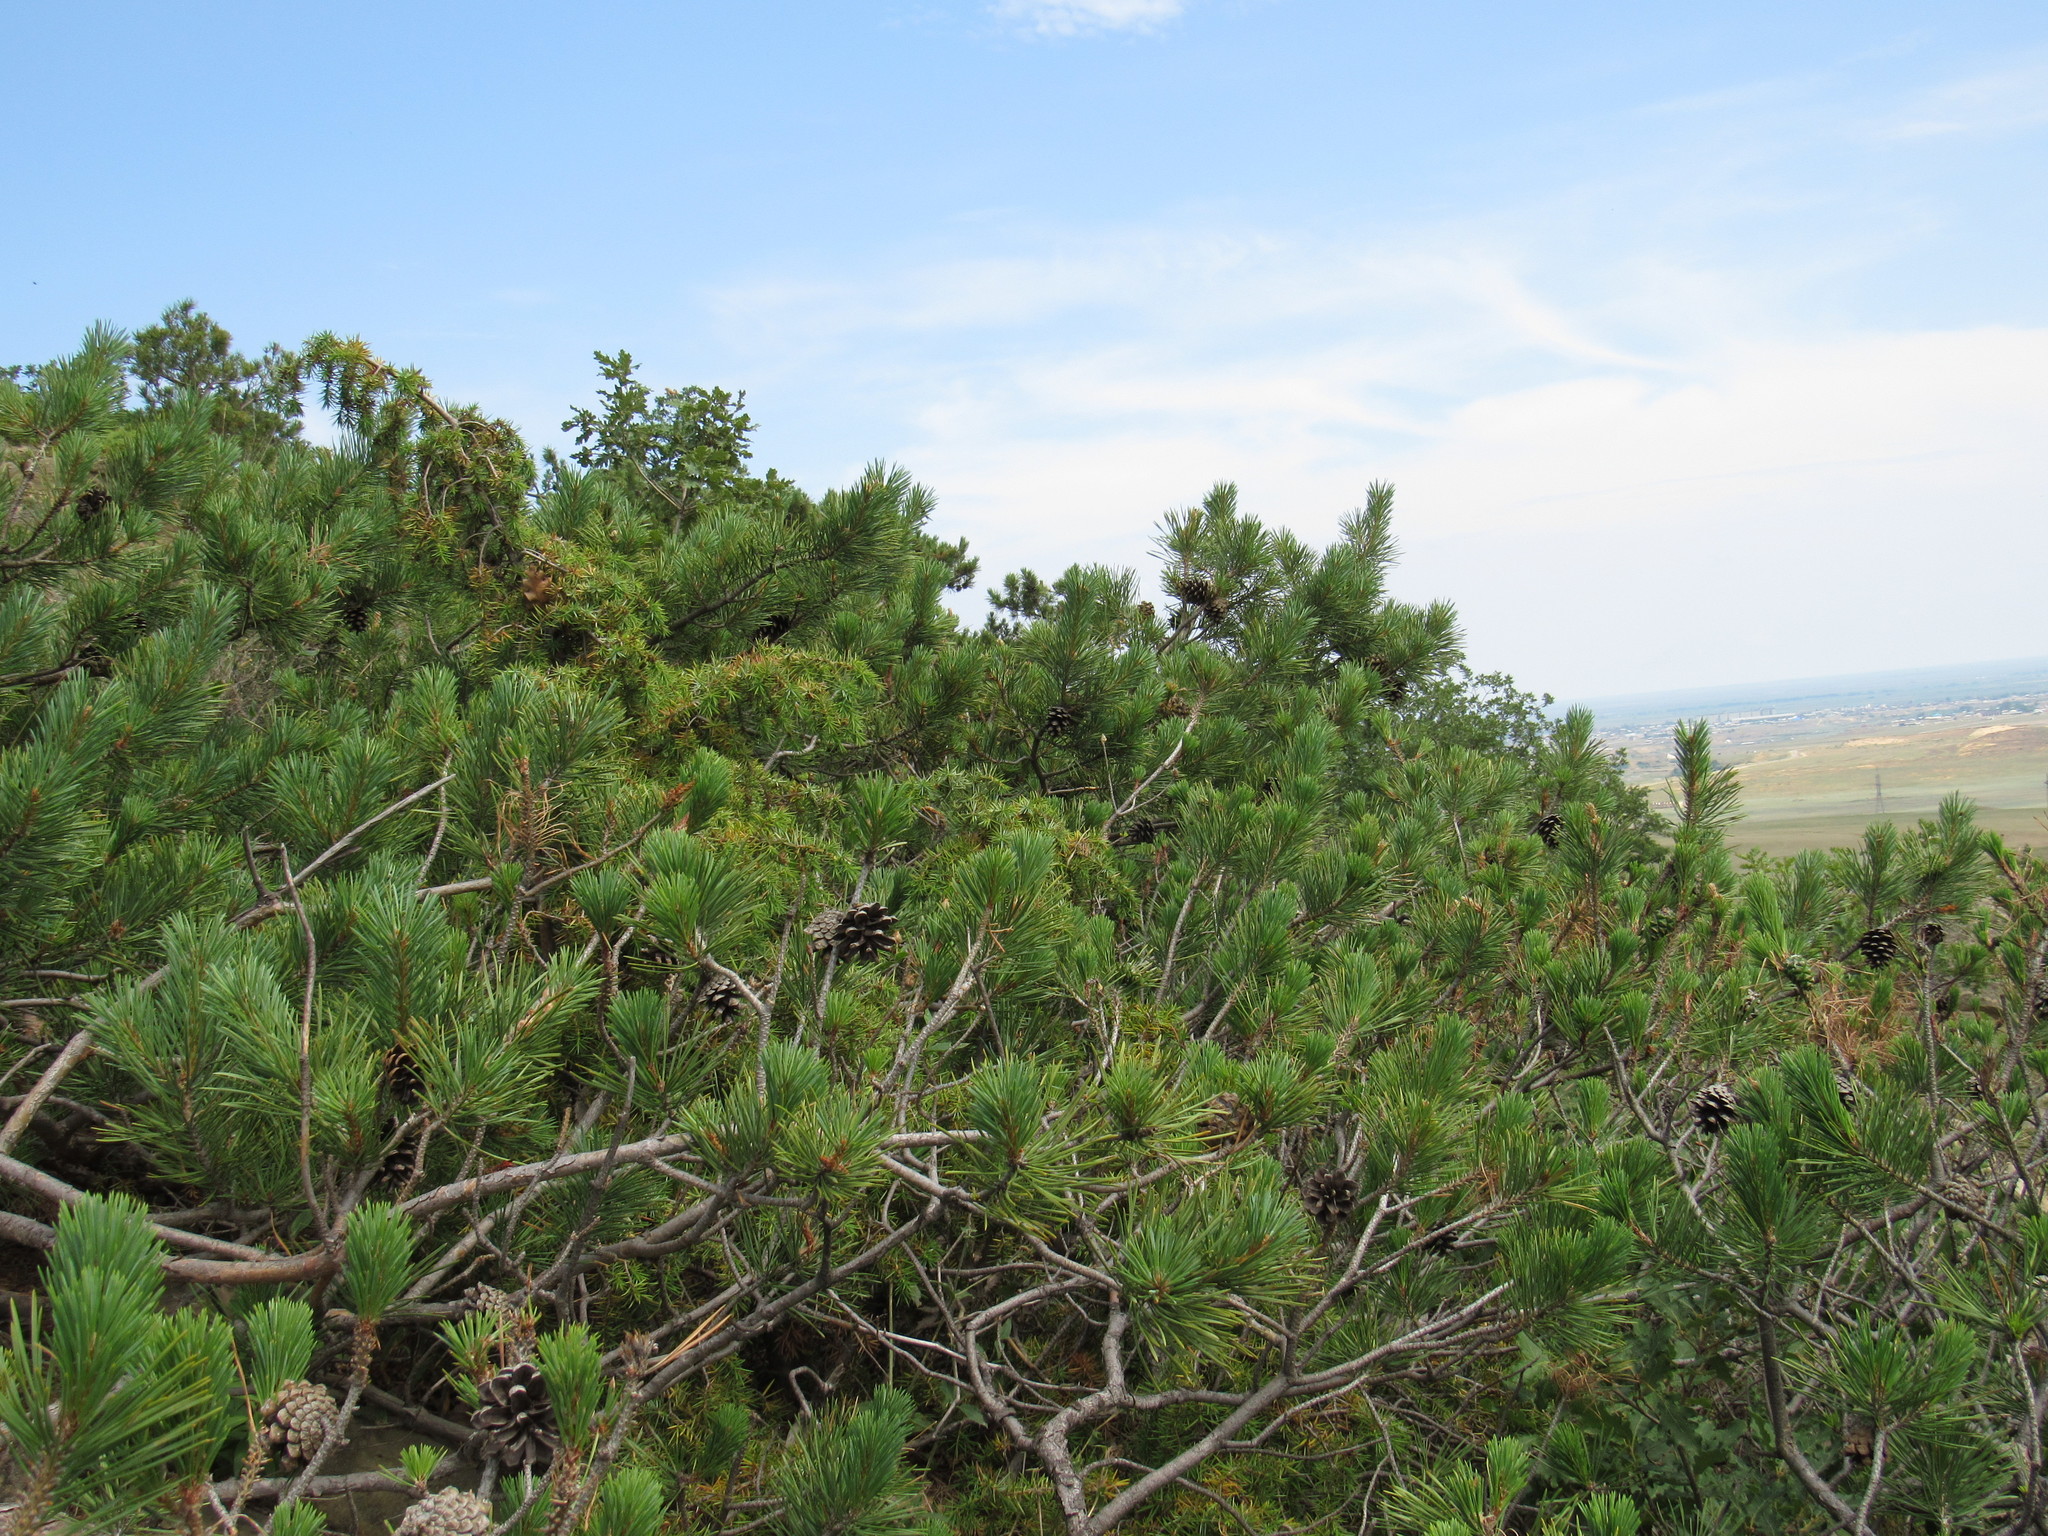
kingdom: Plantae
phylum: Tracheophyta
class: Pinopsida
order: Pinales
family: Pinaceae
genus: Pinus
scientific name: Pinus sylvestris
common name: Scots pine
